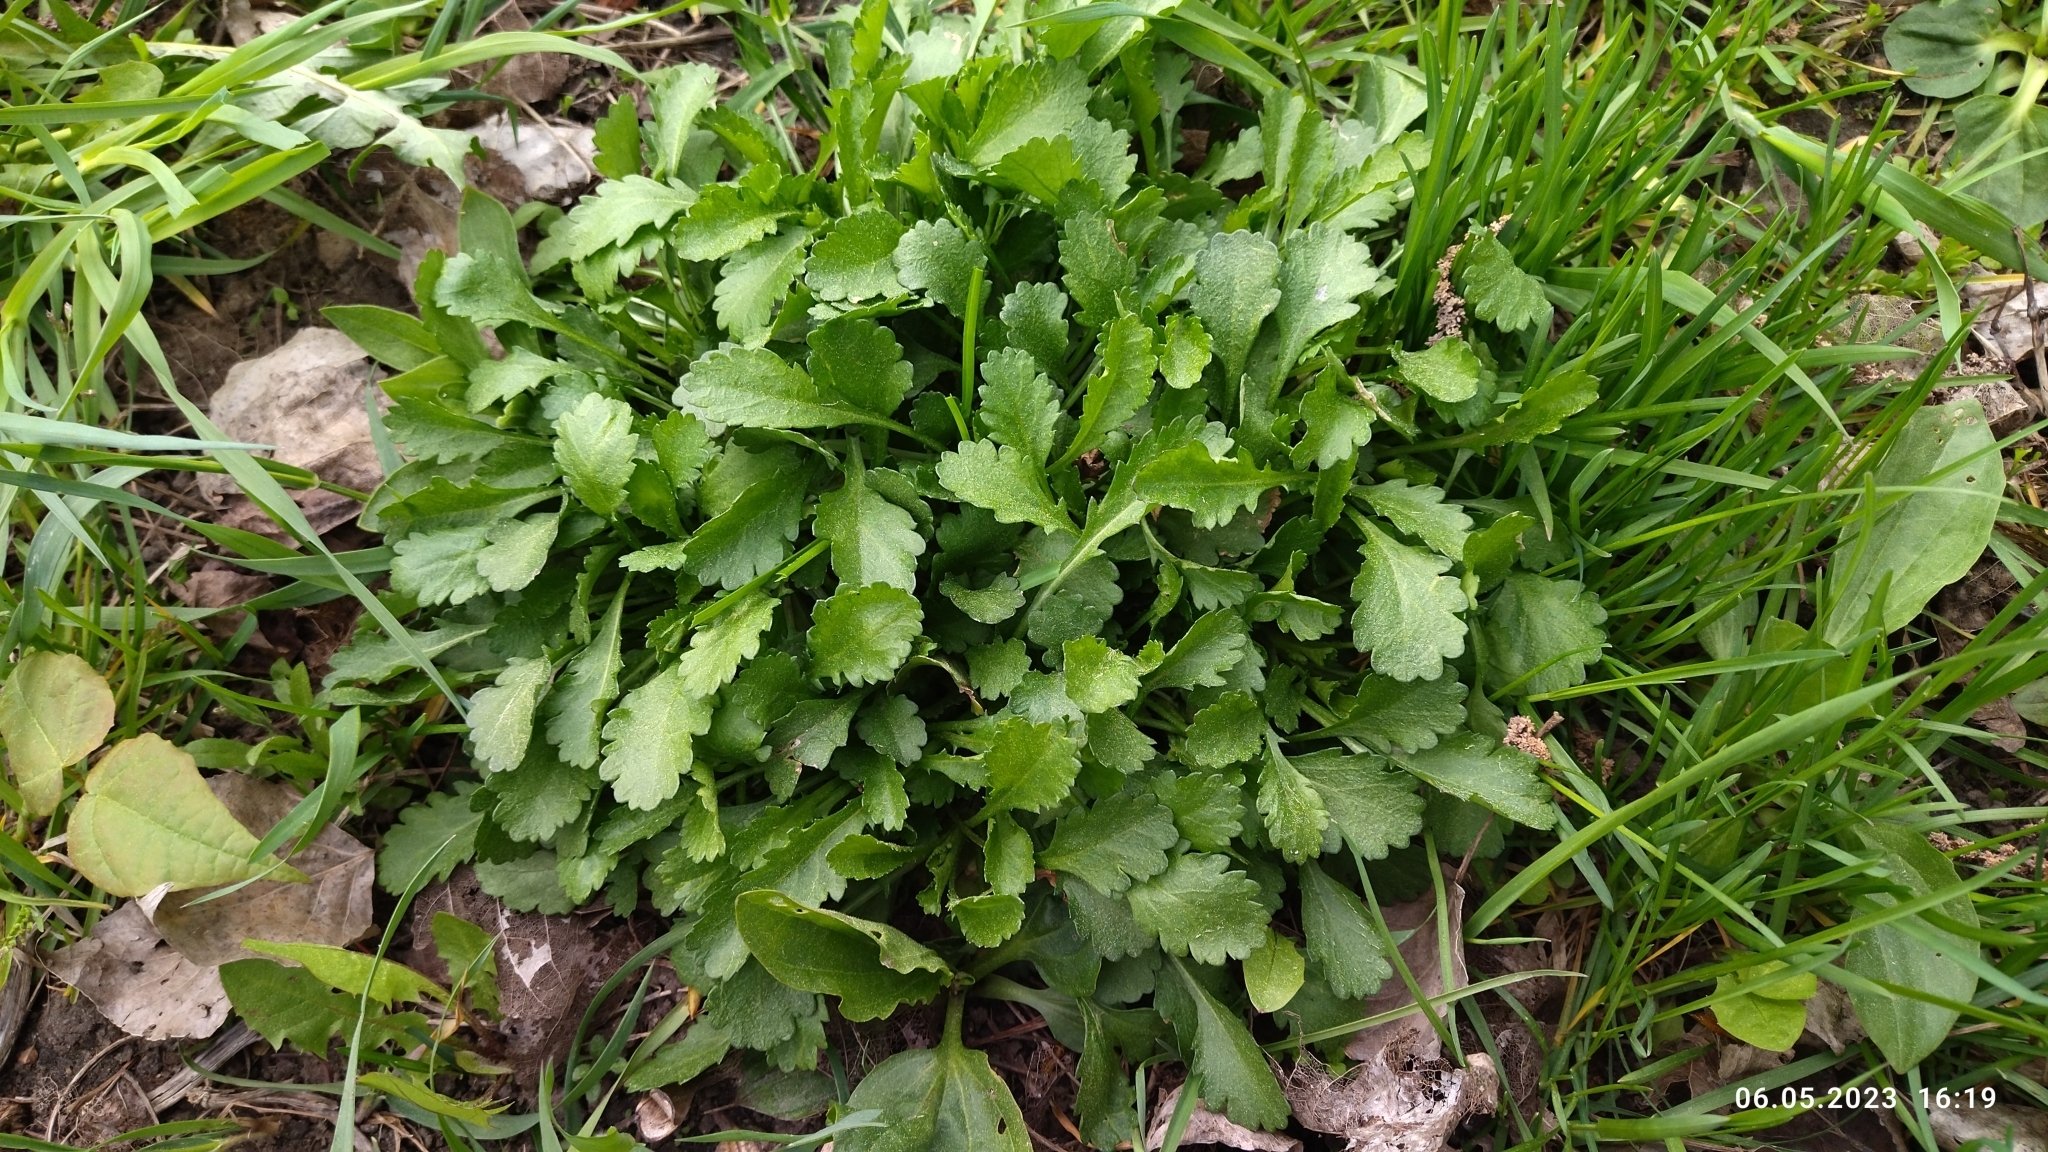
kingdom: Plantae
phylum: Tracheophyta
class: Magnoliopsida
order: Asterales
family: Asteraceae
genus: Leucanthemum
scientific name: Leucanthemum vulgare
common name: Oxeye daisy
